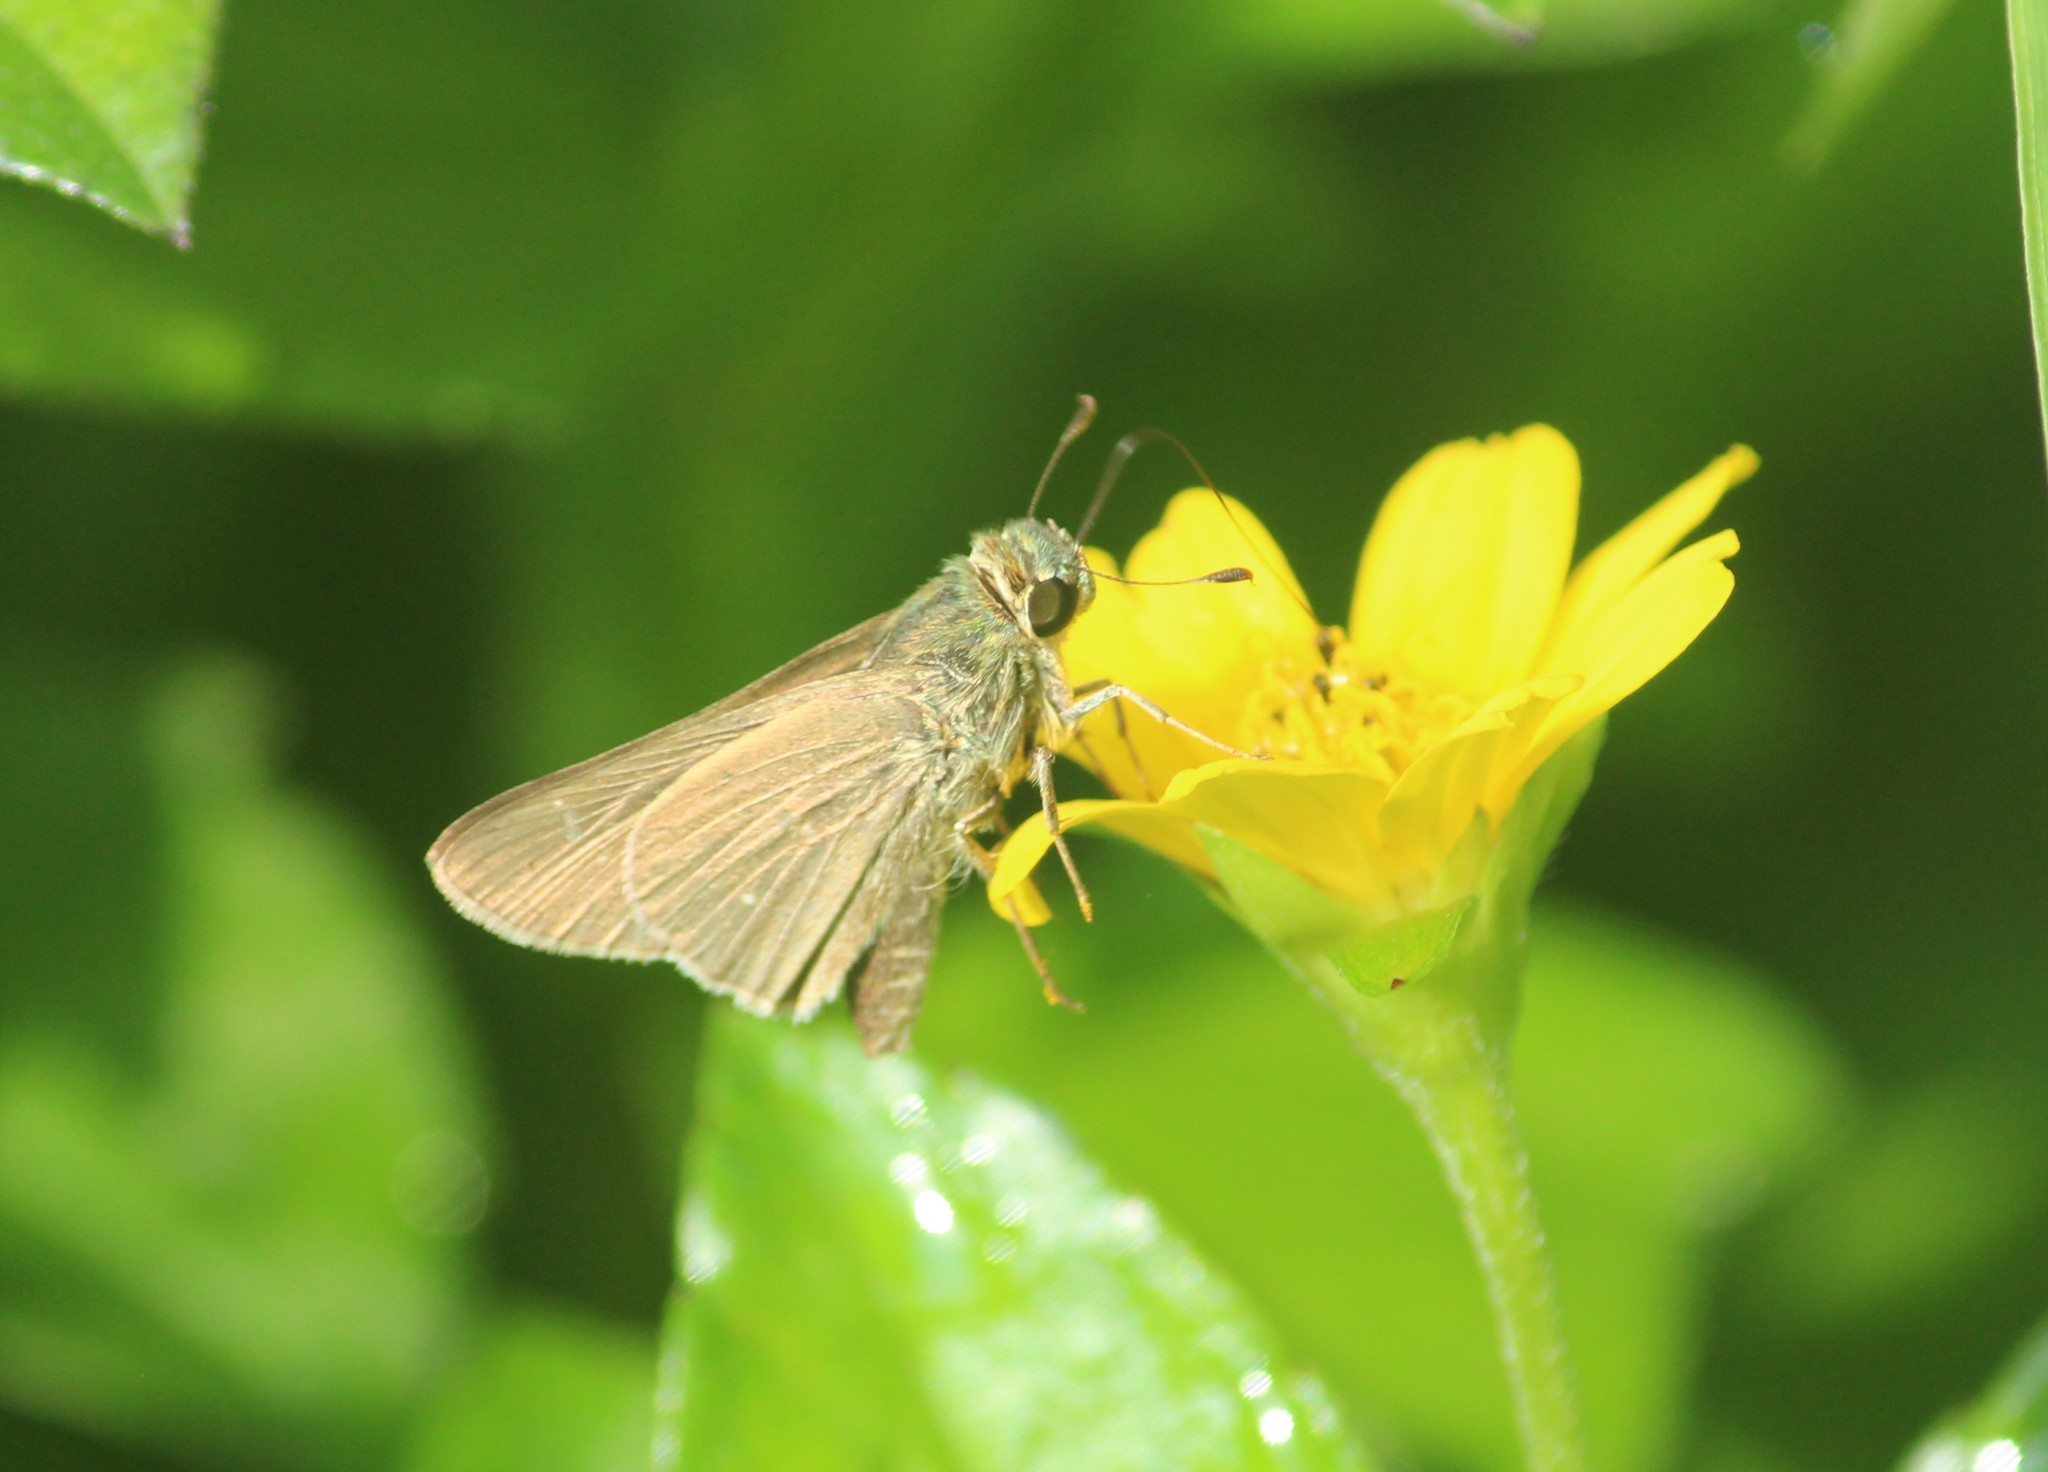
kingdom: Animalia
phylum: Arthropoda
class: Insecta
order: Lepidoptera
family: Hesperiidae
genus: Parnara
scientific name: Parnara naso
